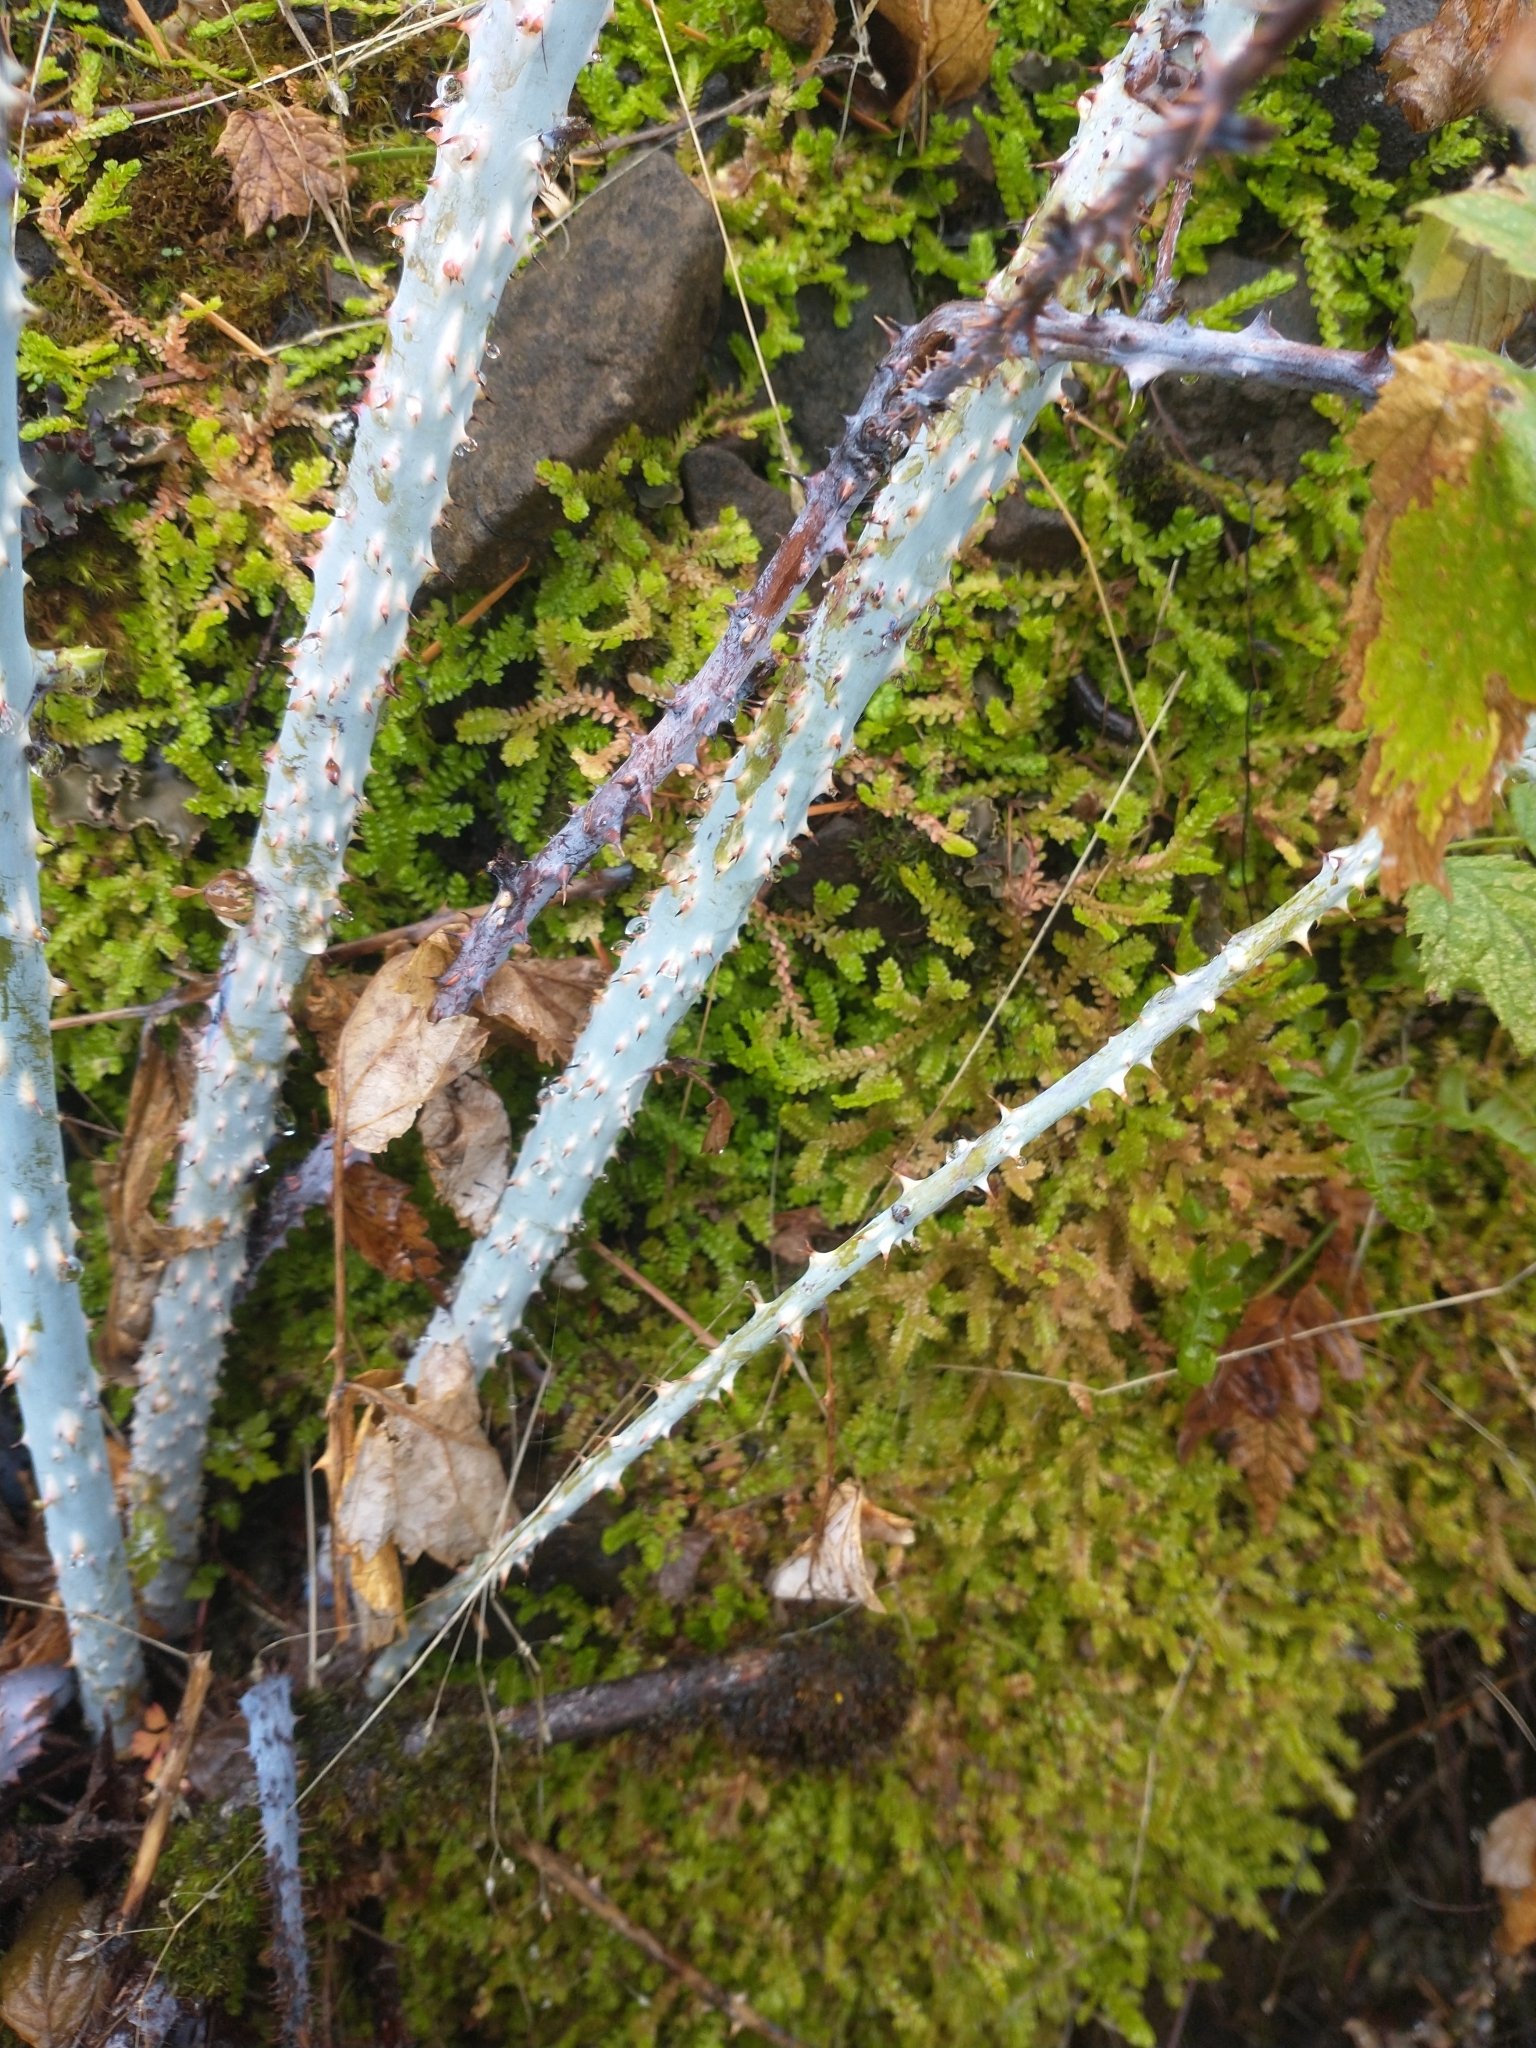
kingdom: Plantae
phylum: Tracheophyta
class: Lycopodiopsida
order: Selaginellales
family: Selaginellaceae
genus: Selaginella
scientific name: Selaginella douglasii
